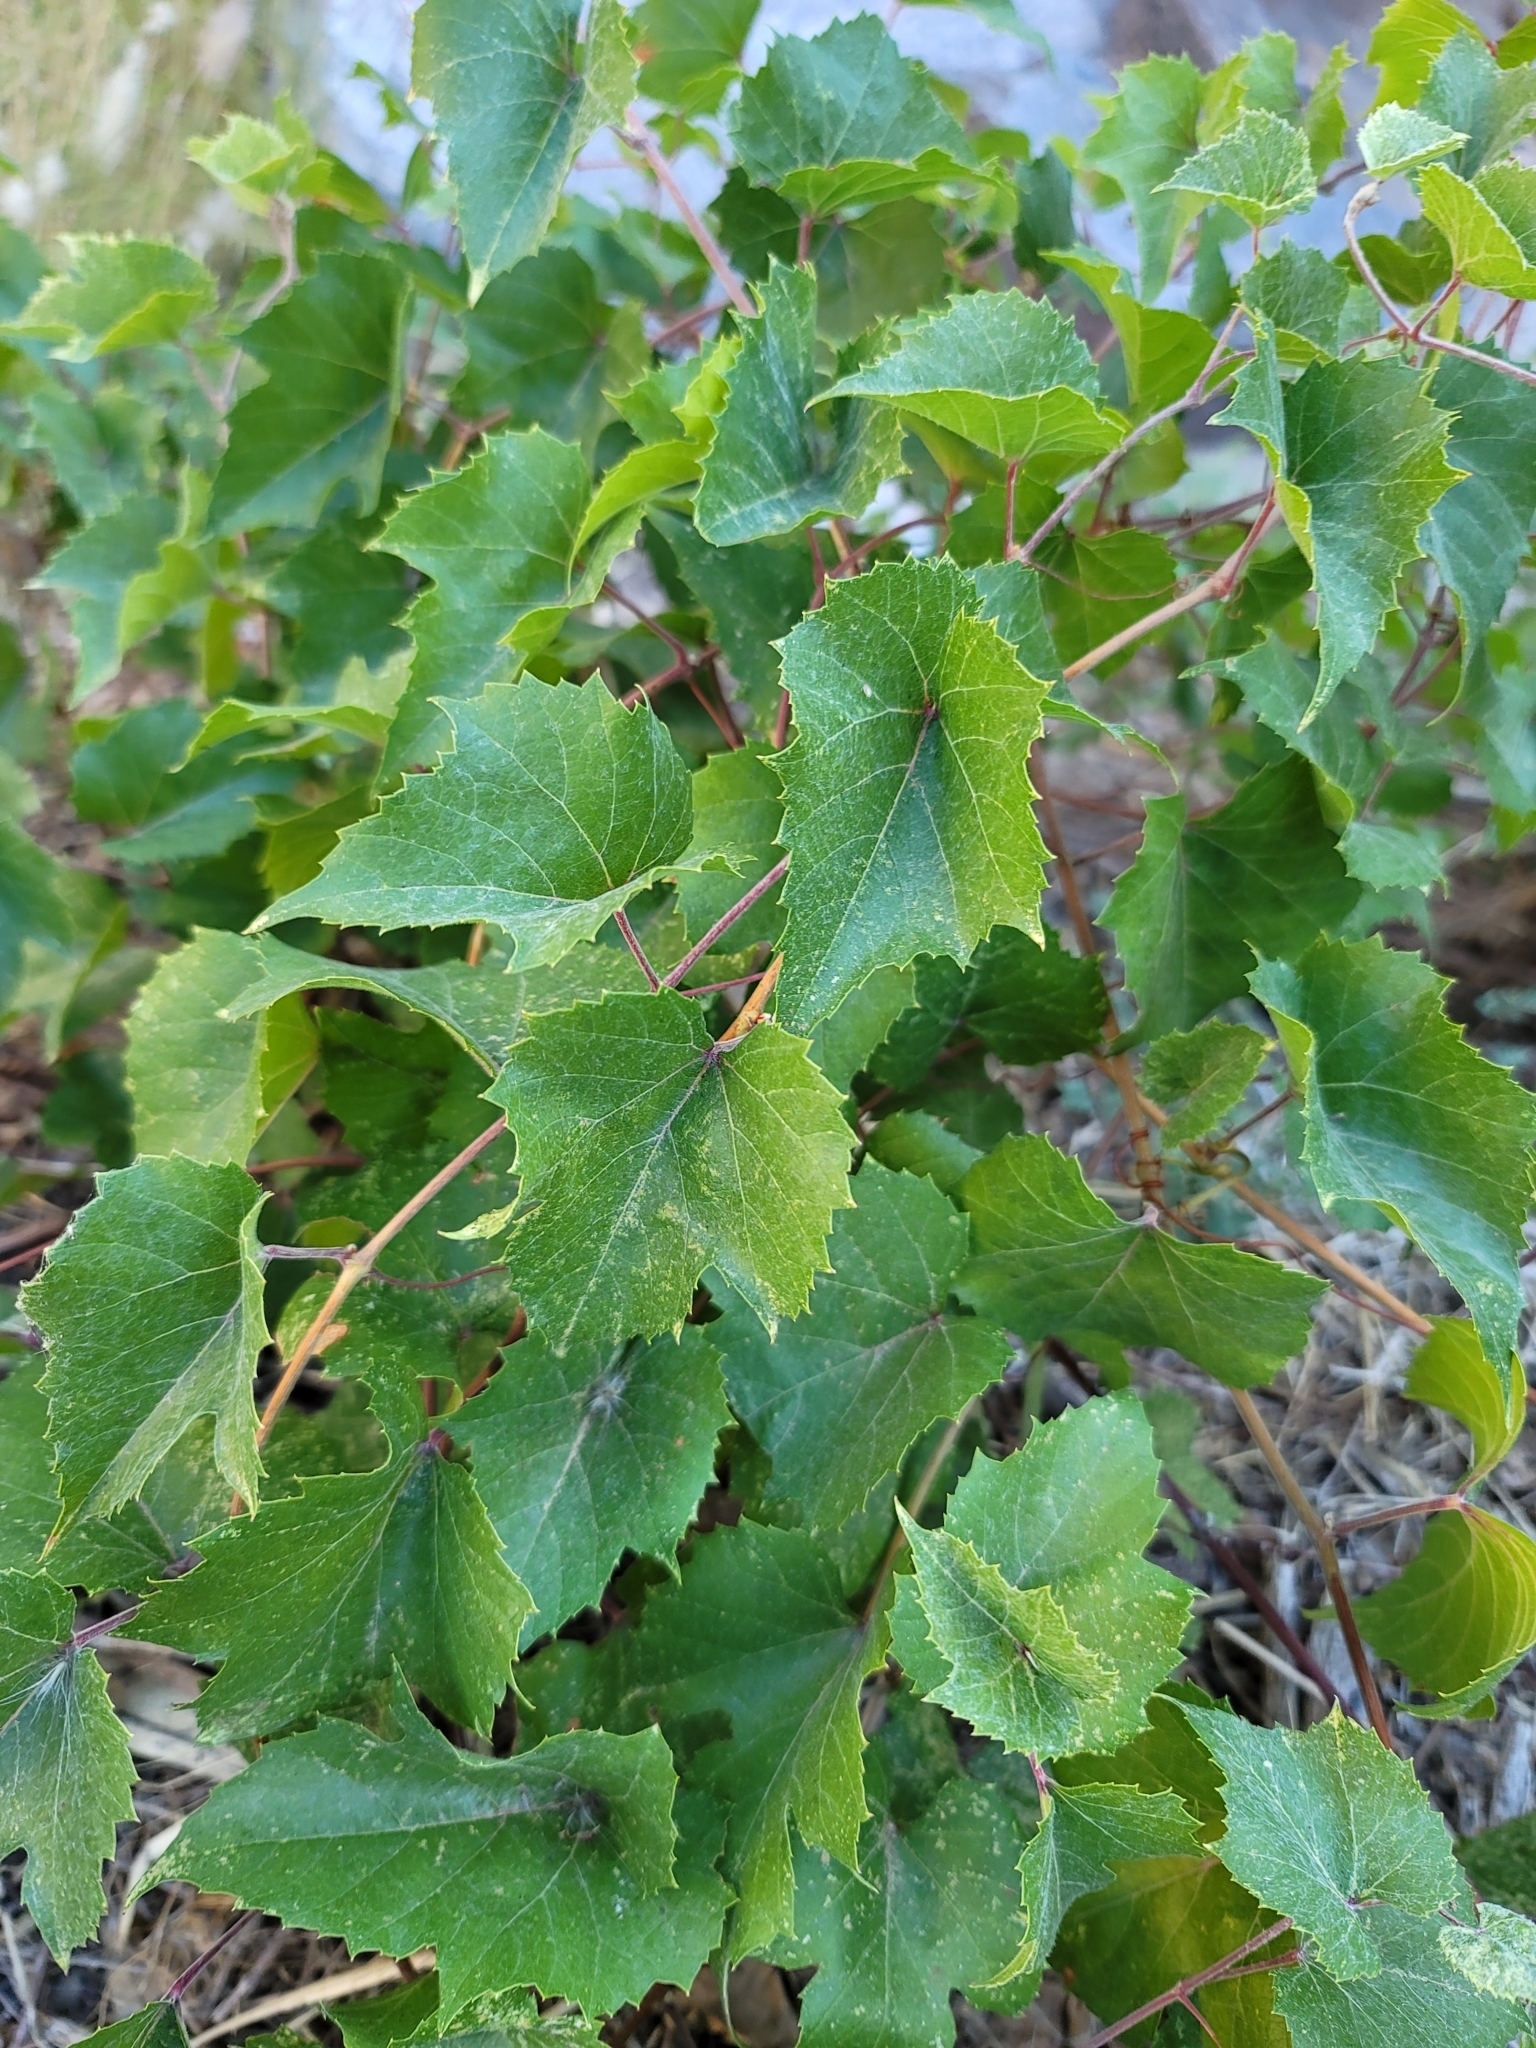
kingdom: Plantae
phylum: Tracheophyta
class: Magnoliopsida
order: Vitales
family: Vitaceae
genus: Vitis
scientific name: Vitis arizonica
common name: Canyon grape
